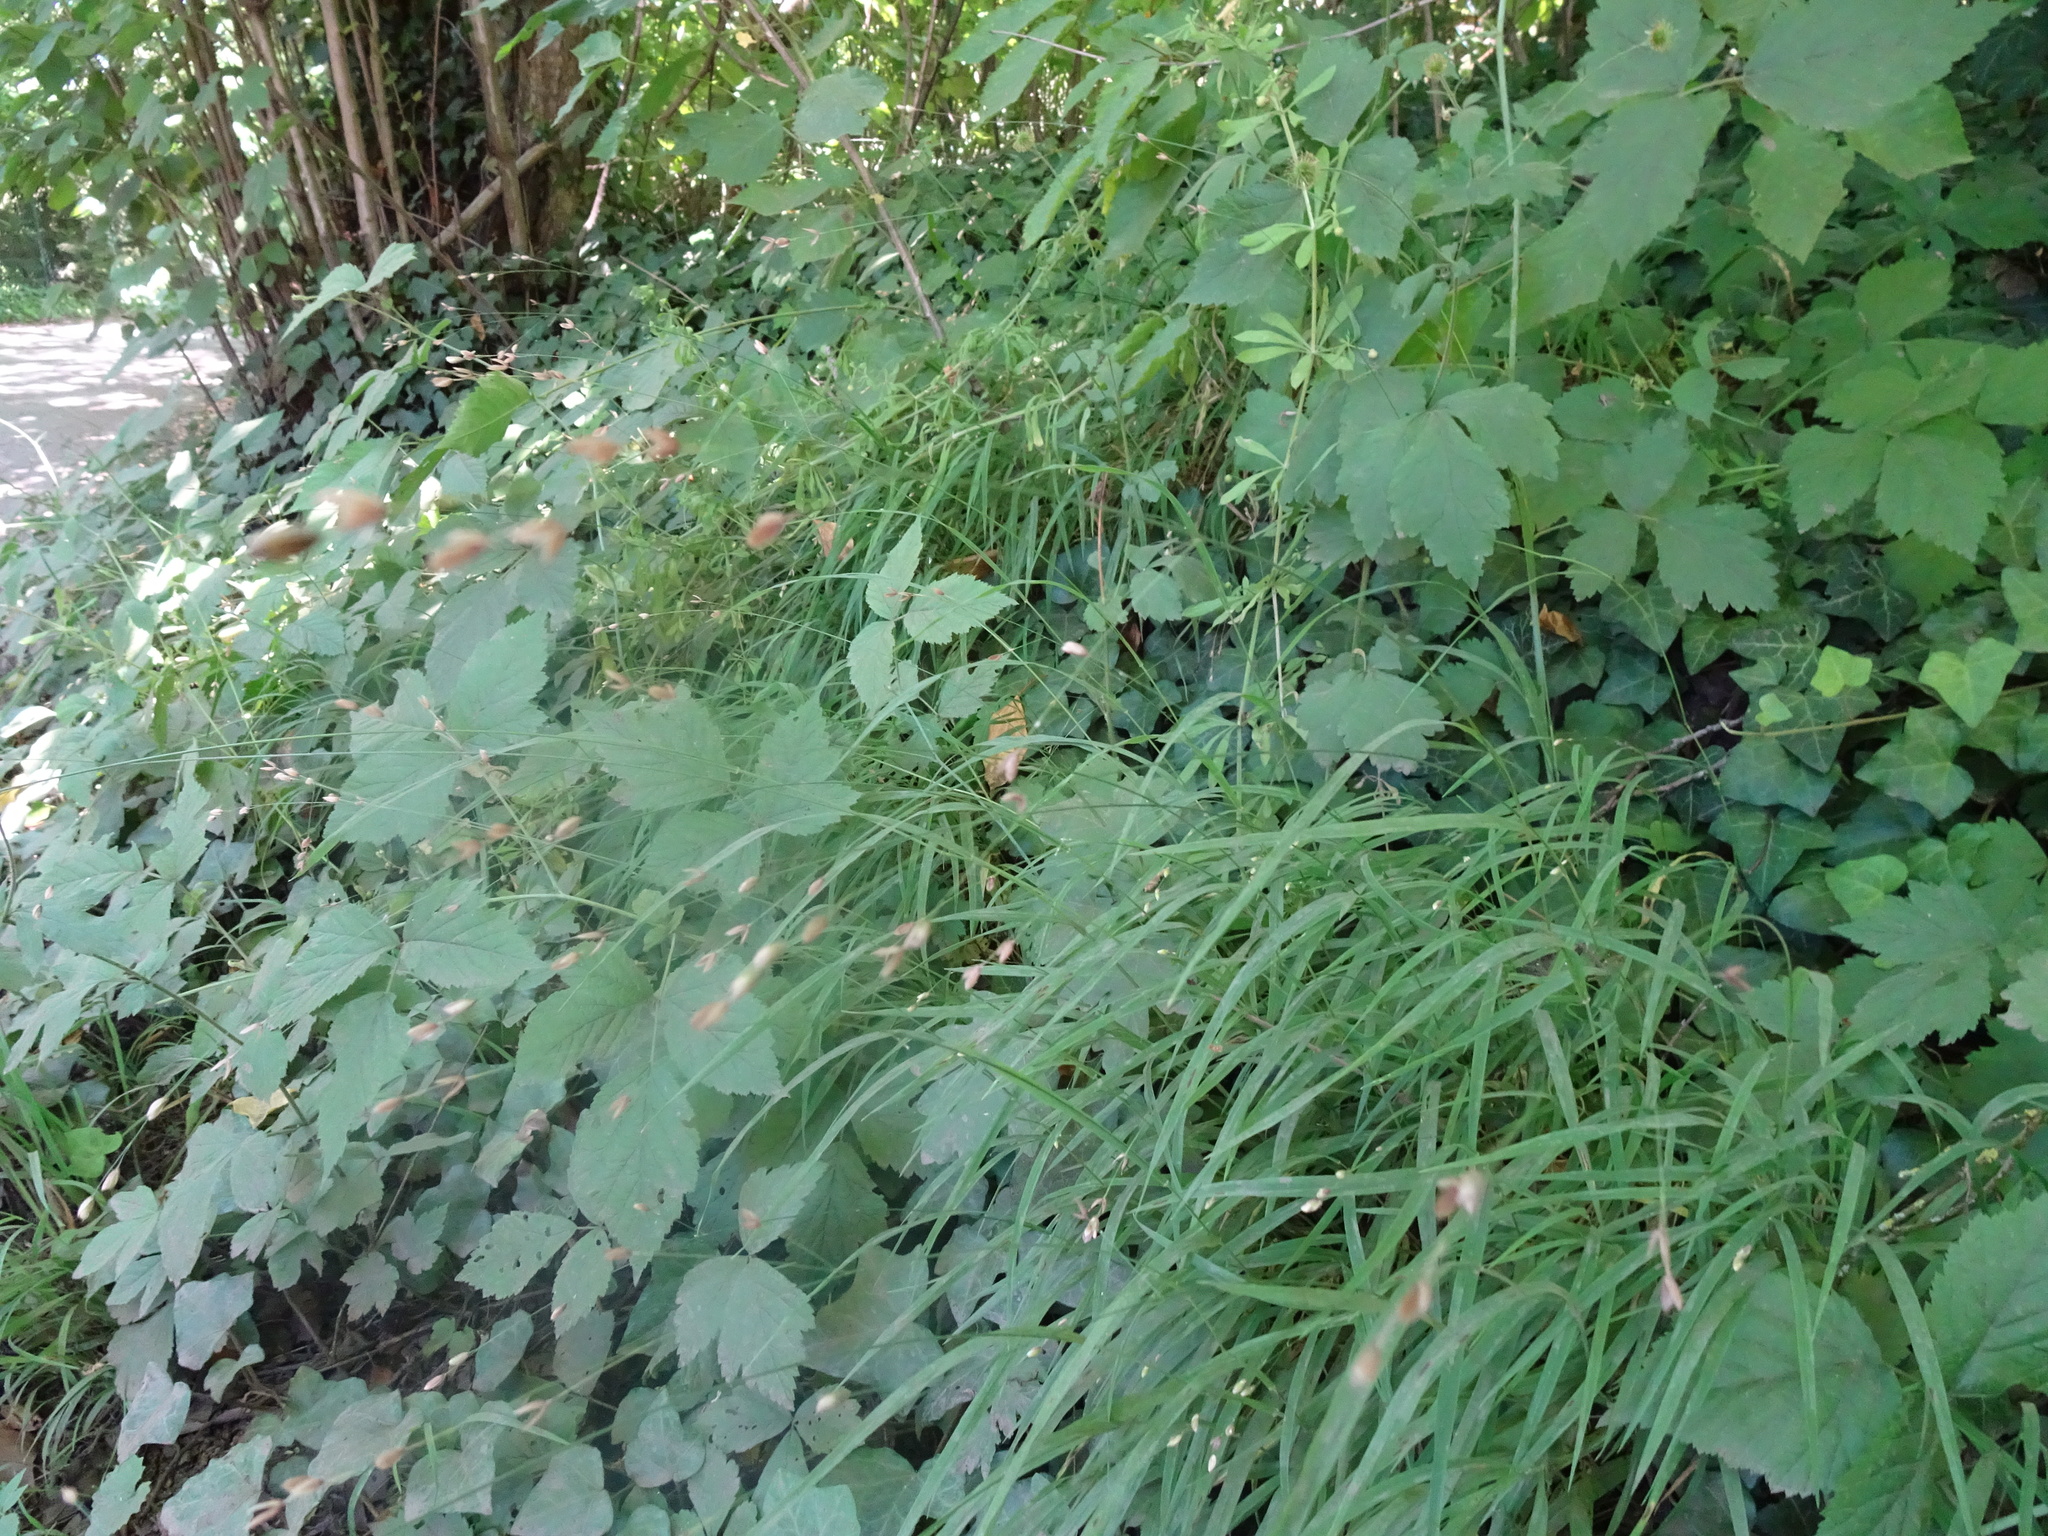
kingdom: Plantae
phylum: Tracheophyta
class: Liliopsida
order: Poales
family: Poaceae
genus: Melica
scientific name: Melica uniflora
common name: Wood melick
